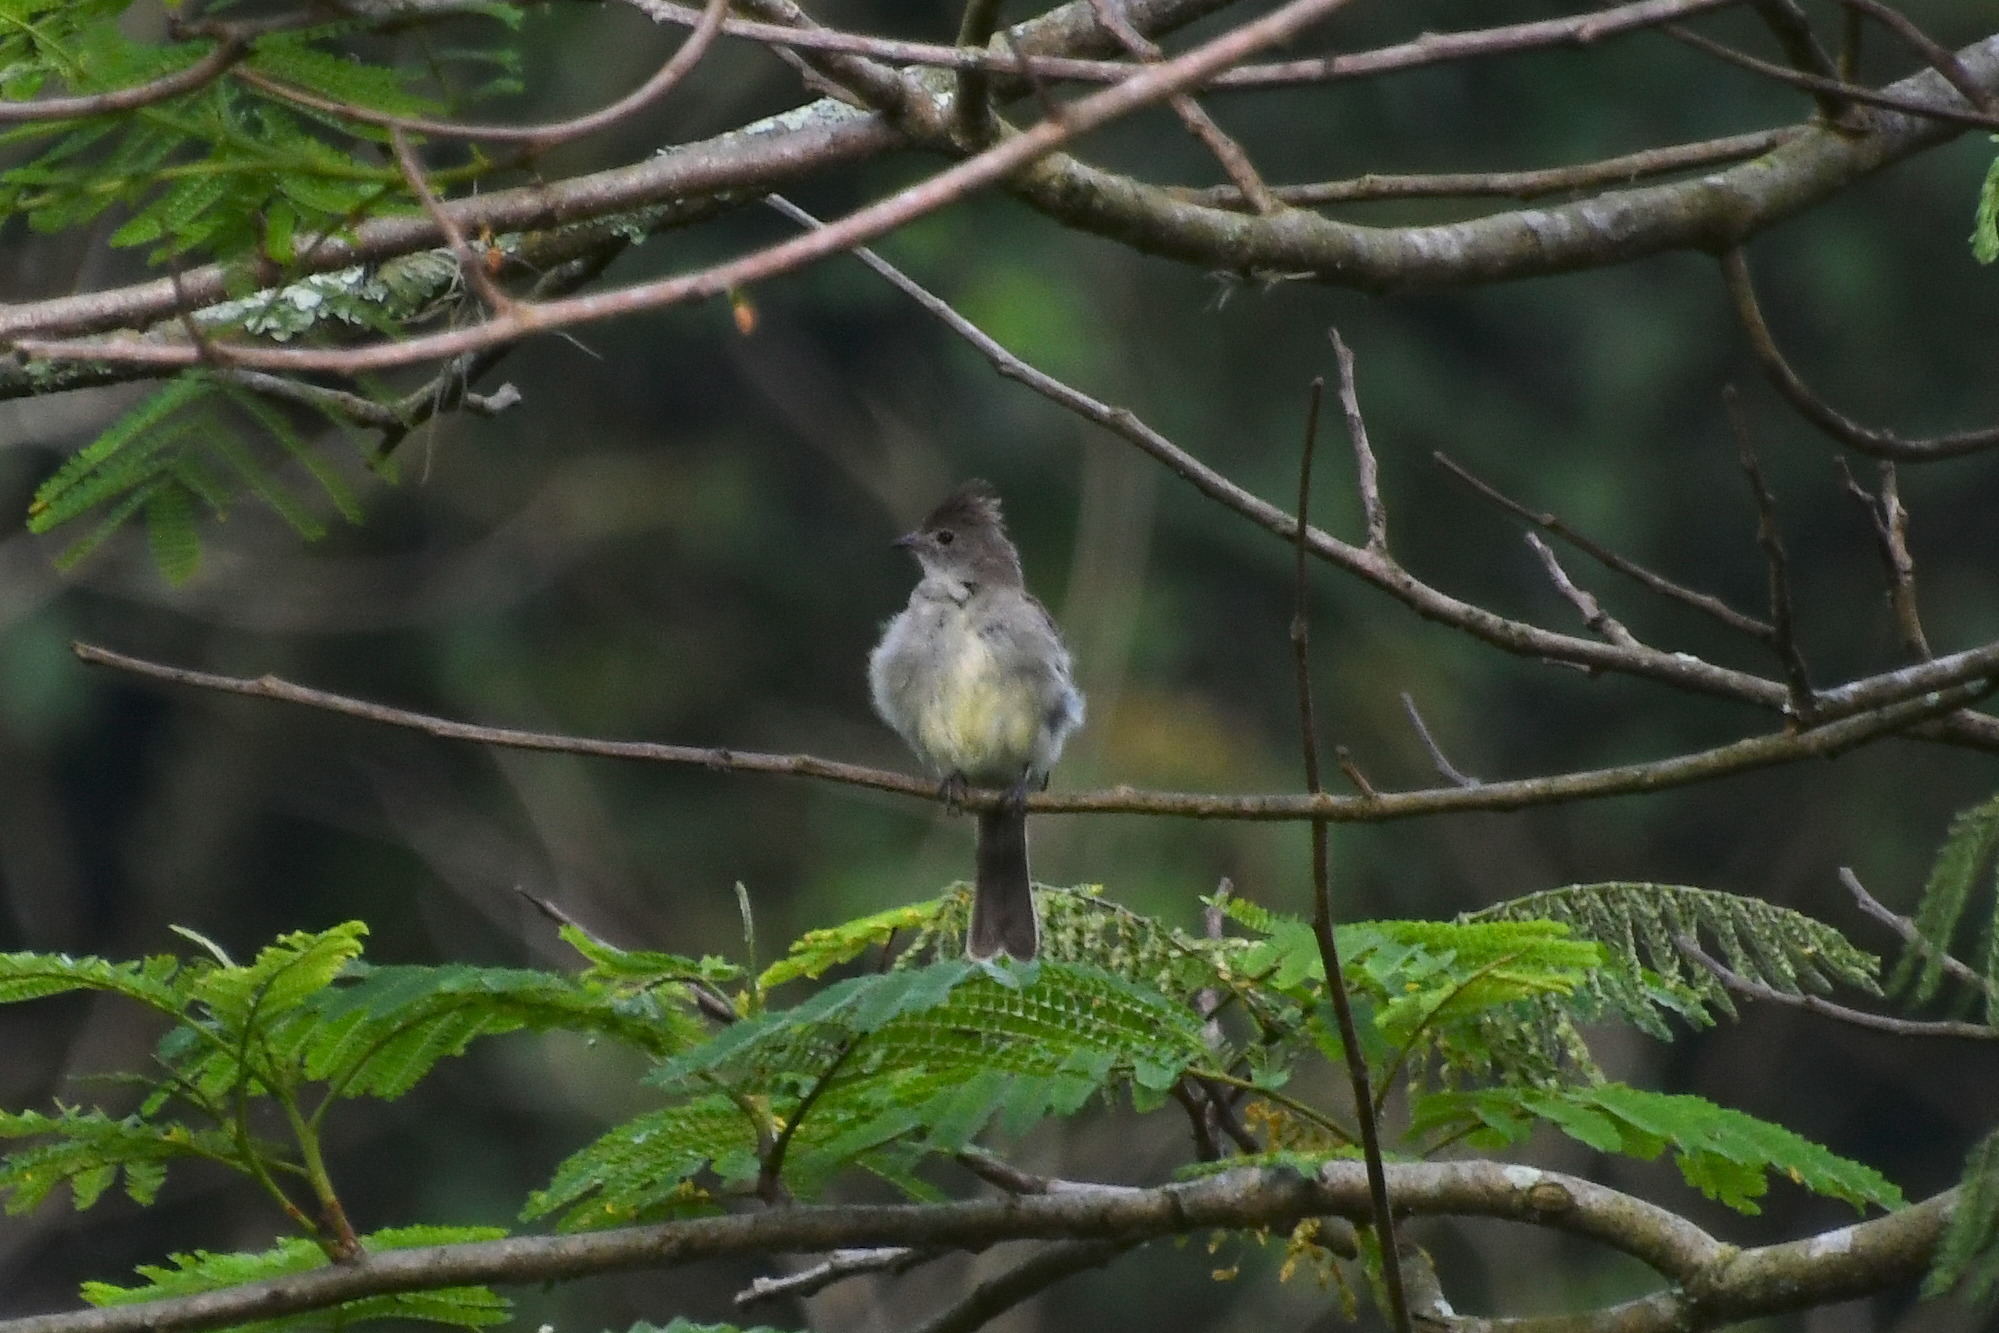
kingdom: Animalia
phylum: Chordata
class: Aves
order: Passeriformes
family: Tyrannidae
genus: Elaenia
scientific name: Elaenia flavogaster
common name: Yellow-bellied elaenia
